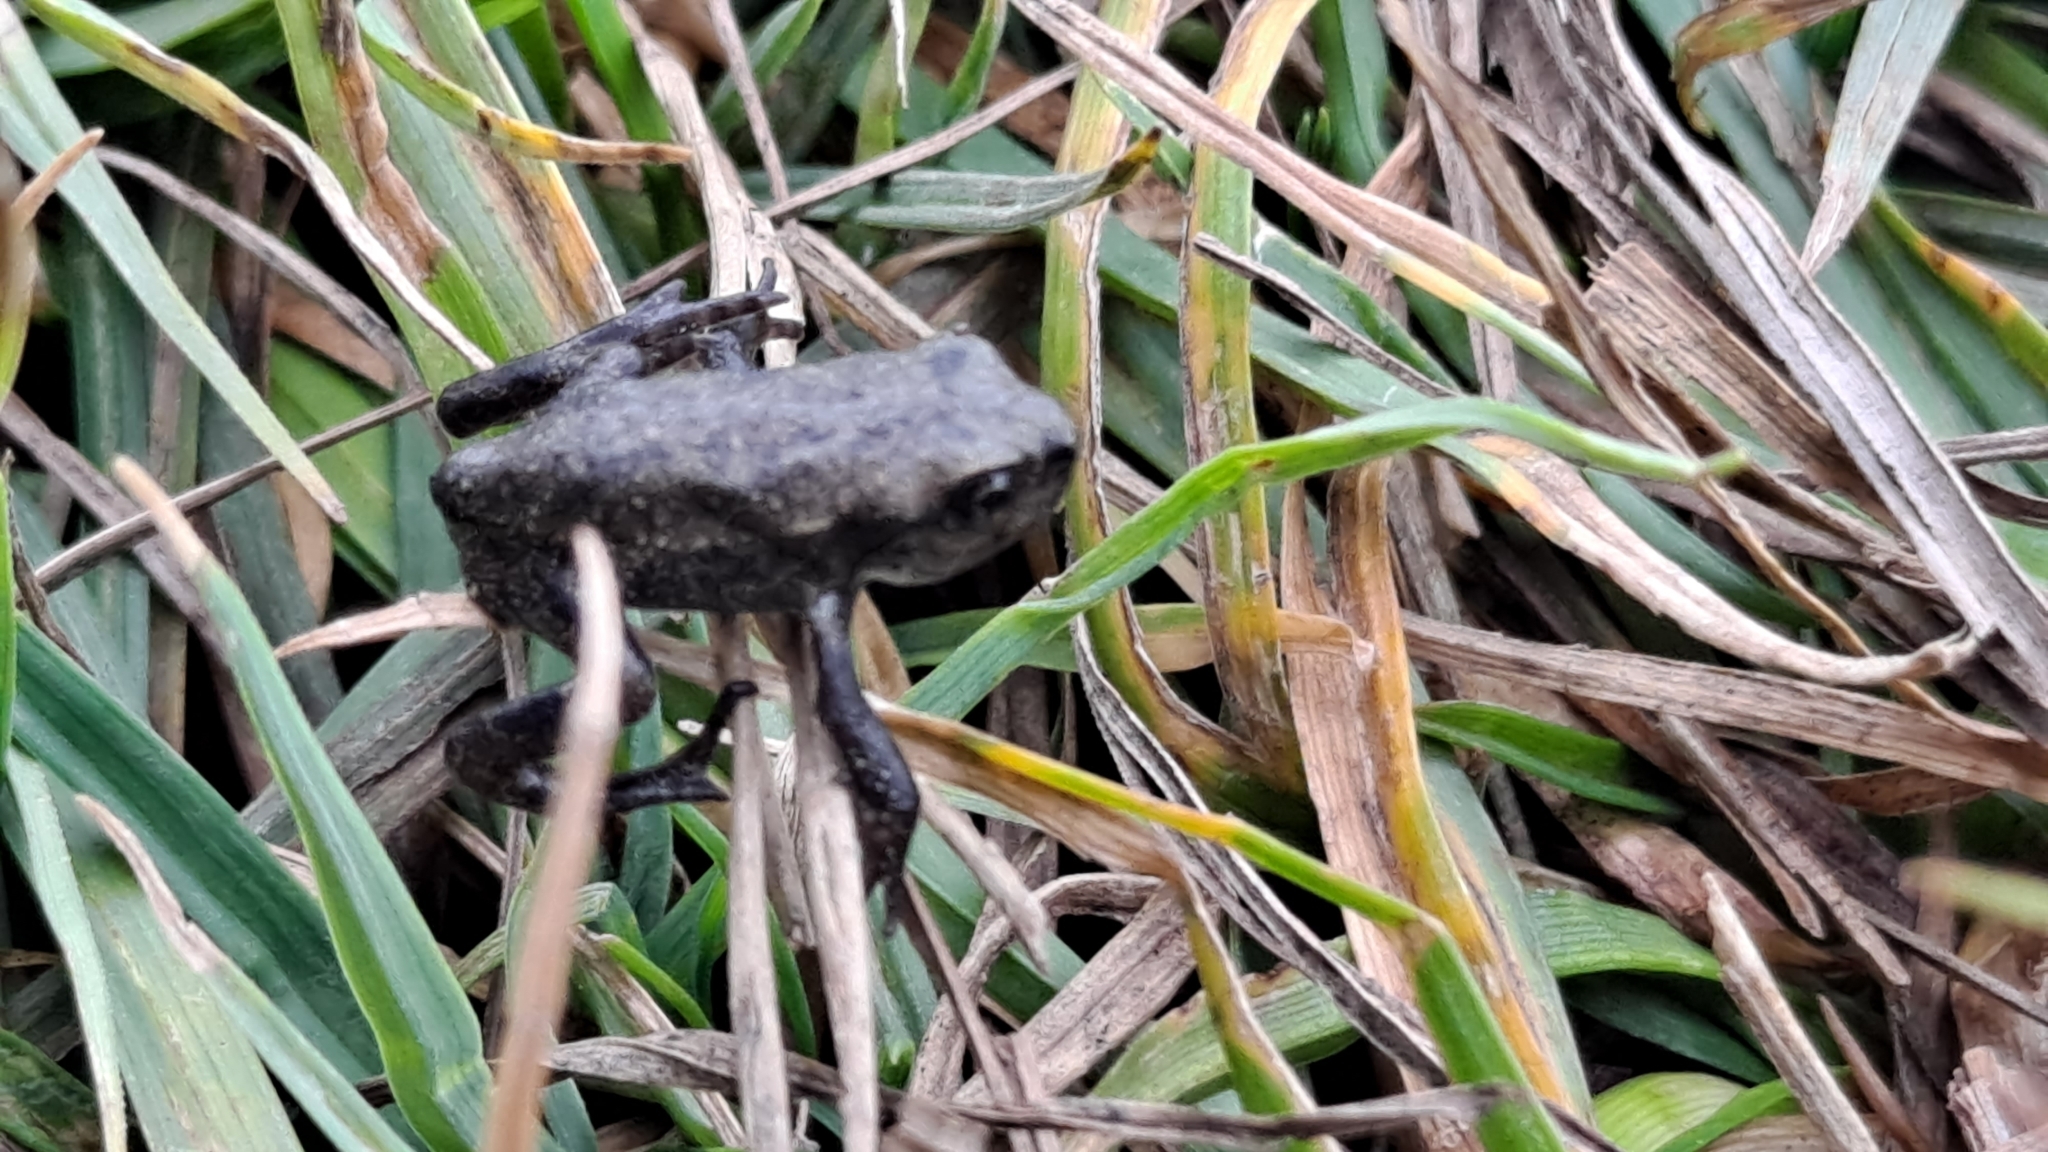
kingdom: Animalia
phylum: Chordata
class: Amphibia
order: Anura
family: Bufonidae
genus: Bufo
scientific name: Bufo spinosus
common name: Western common toad
